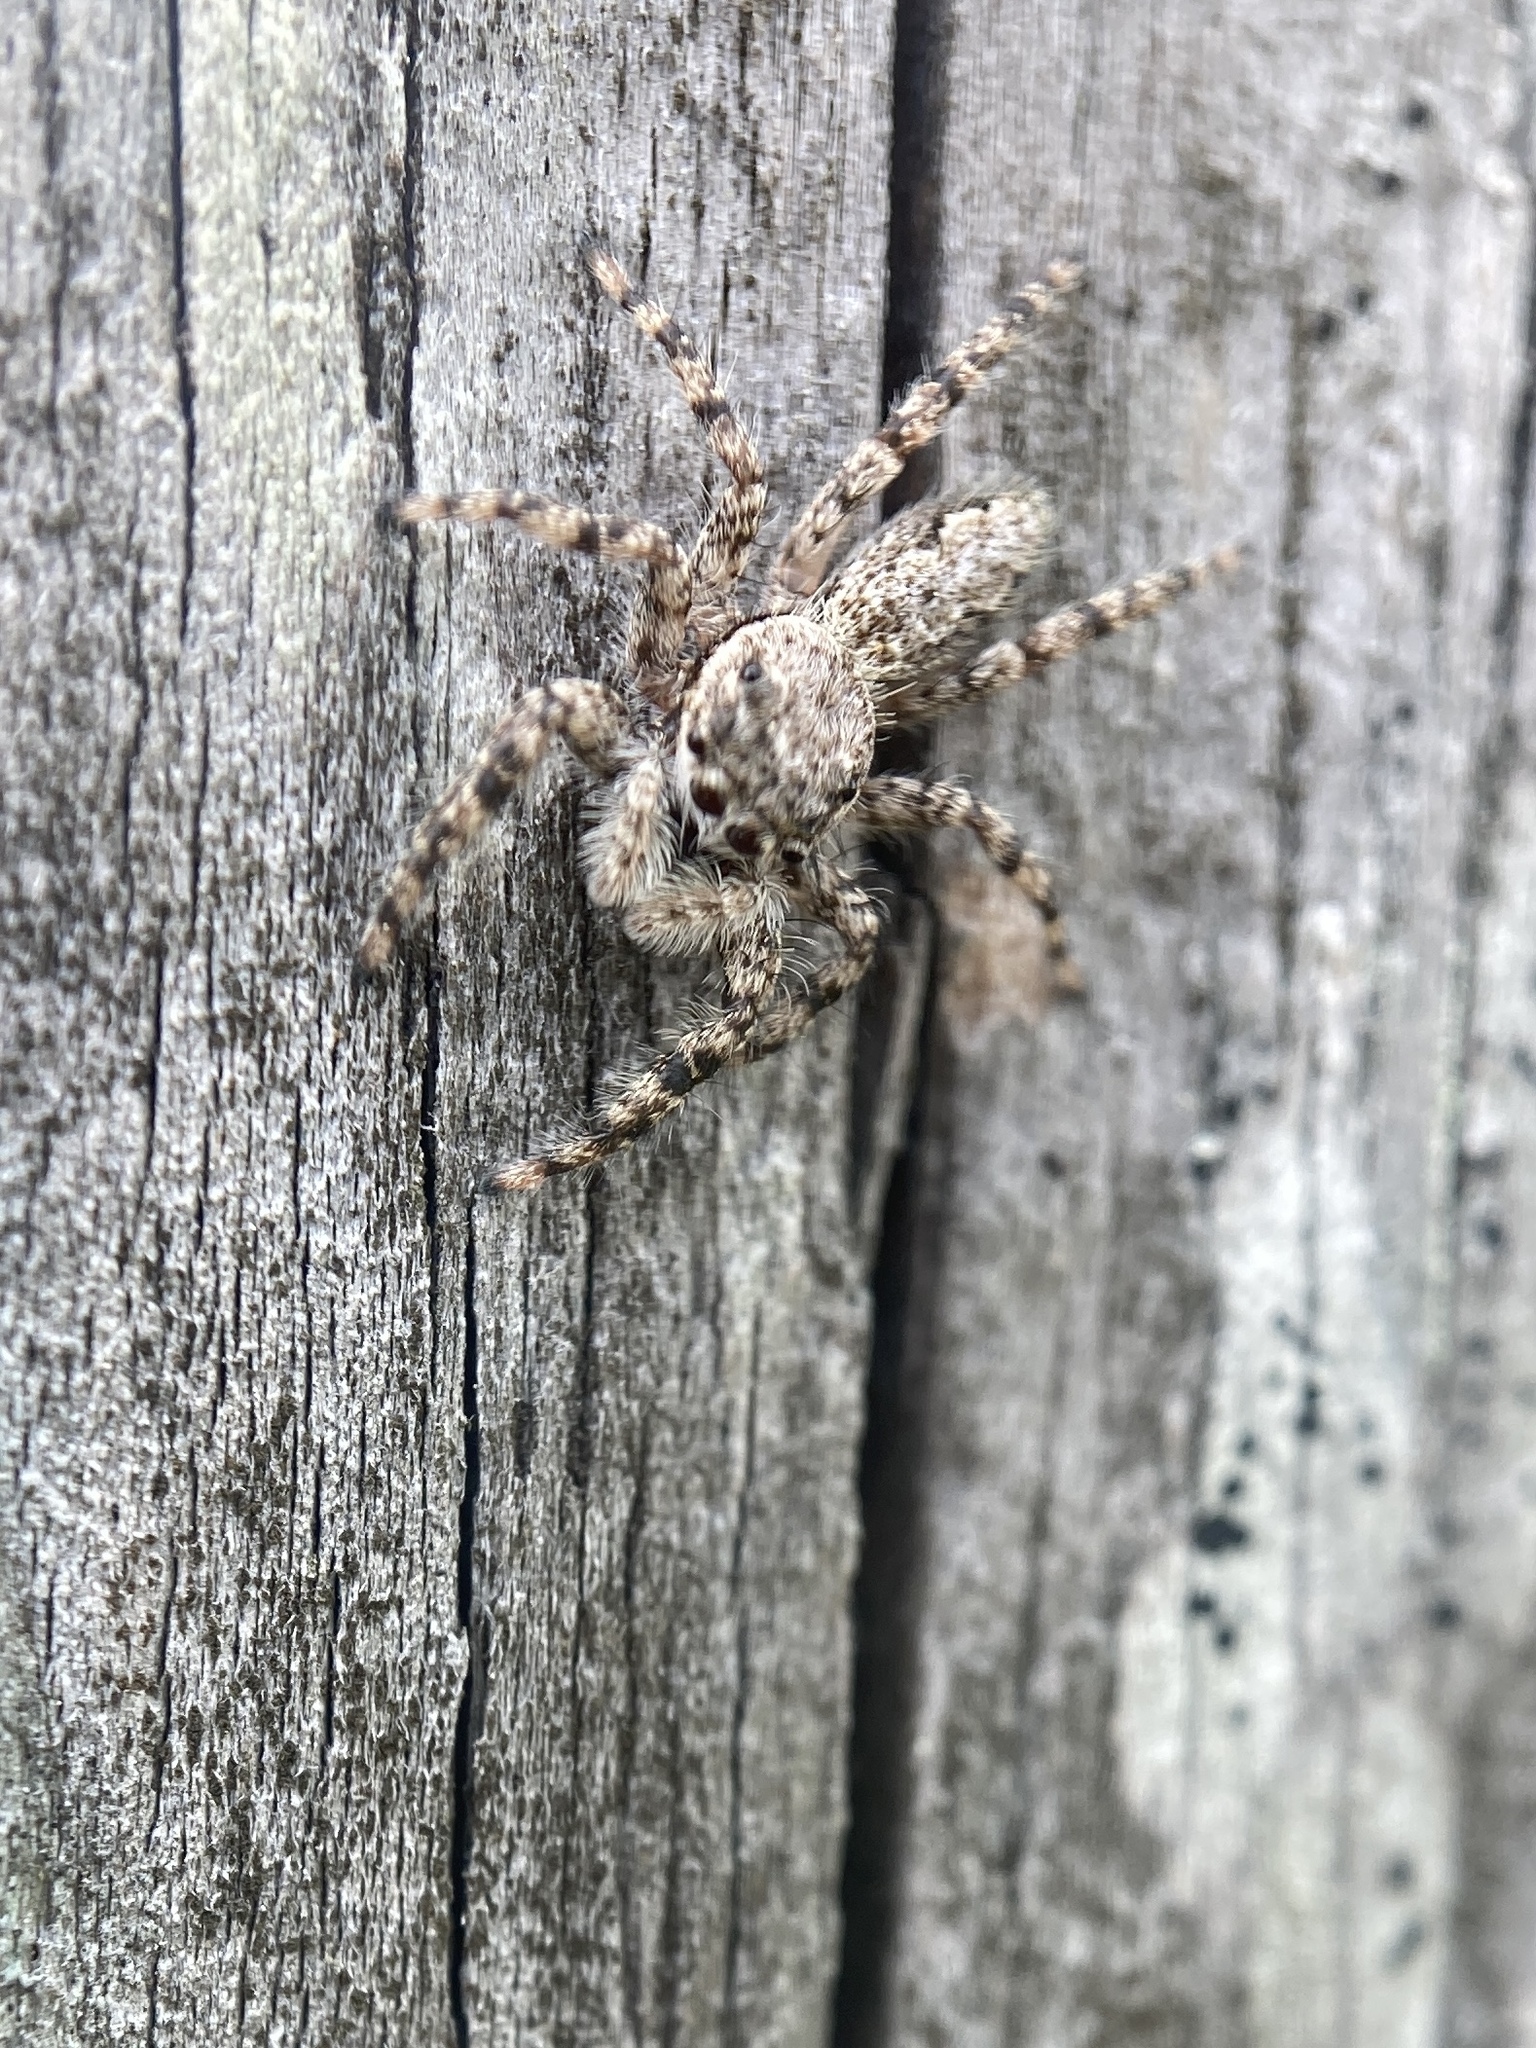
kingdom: Animalia
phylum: Arthropoda
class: Arachnida
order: Araneae
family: Salticidae
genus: Platycryptus
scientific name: Platycryptus undatus
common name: Tan jumping spider
